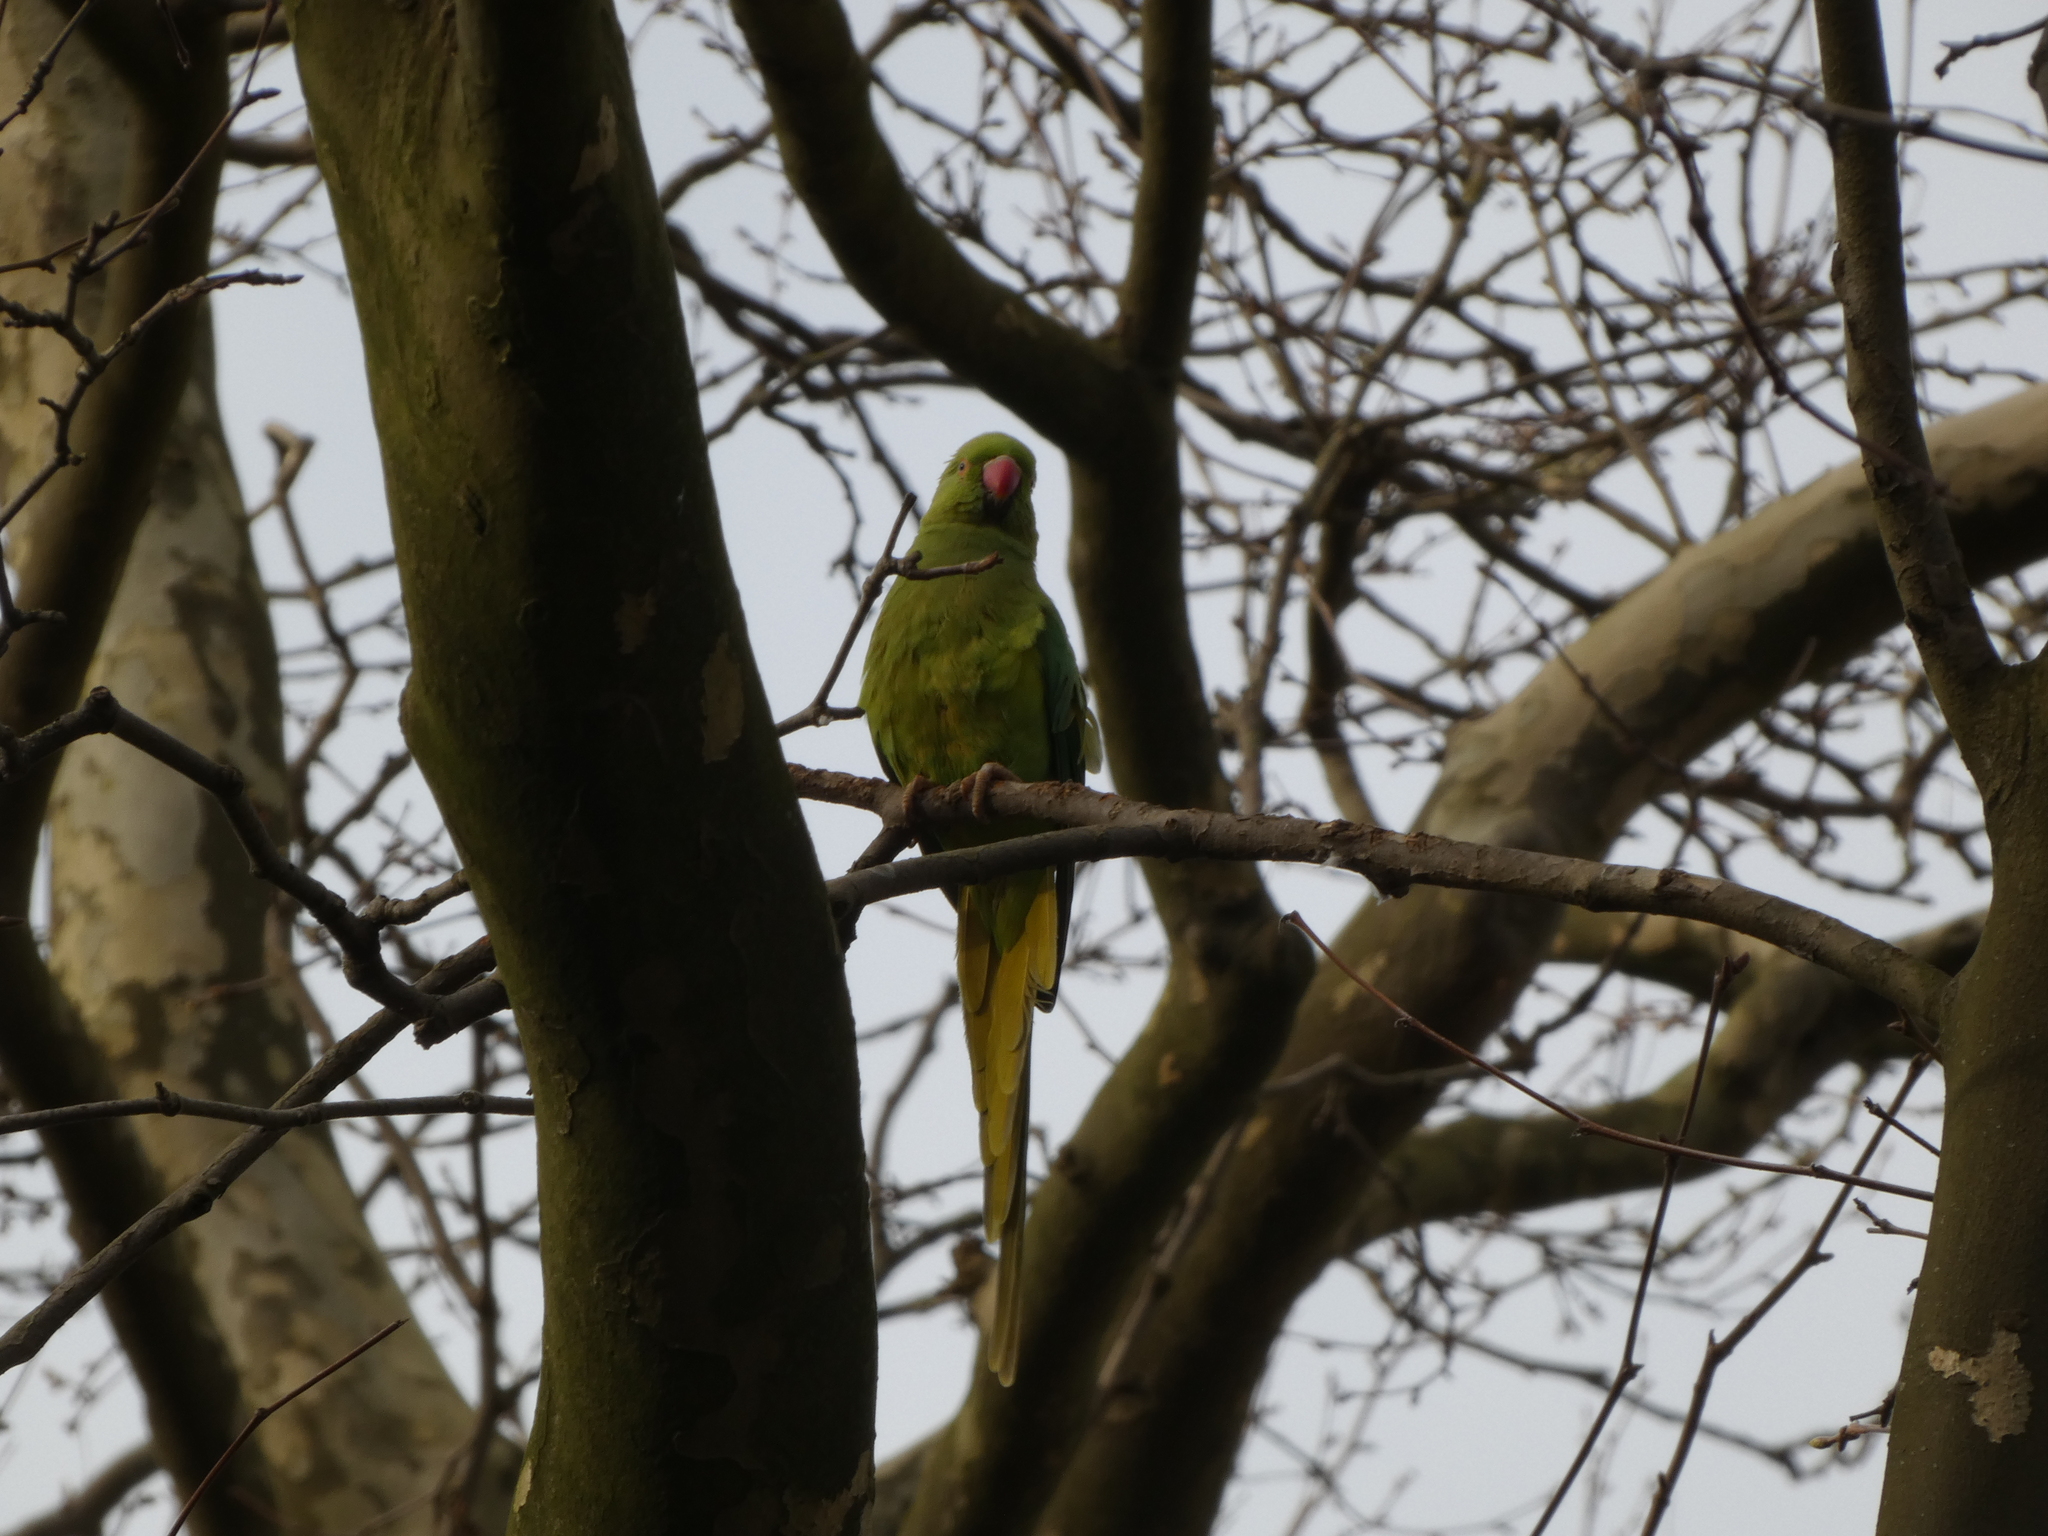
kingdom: Animalia
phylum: Chordata
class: Aves
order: Psittaciformes
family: Psittacidae
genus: Psittacula
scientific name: Psittacula krameri
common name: Rose-ringed parakeet
